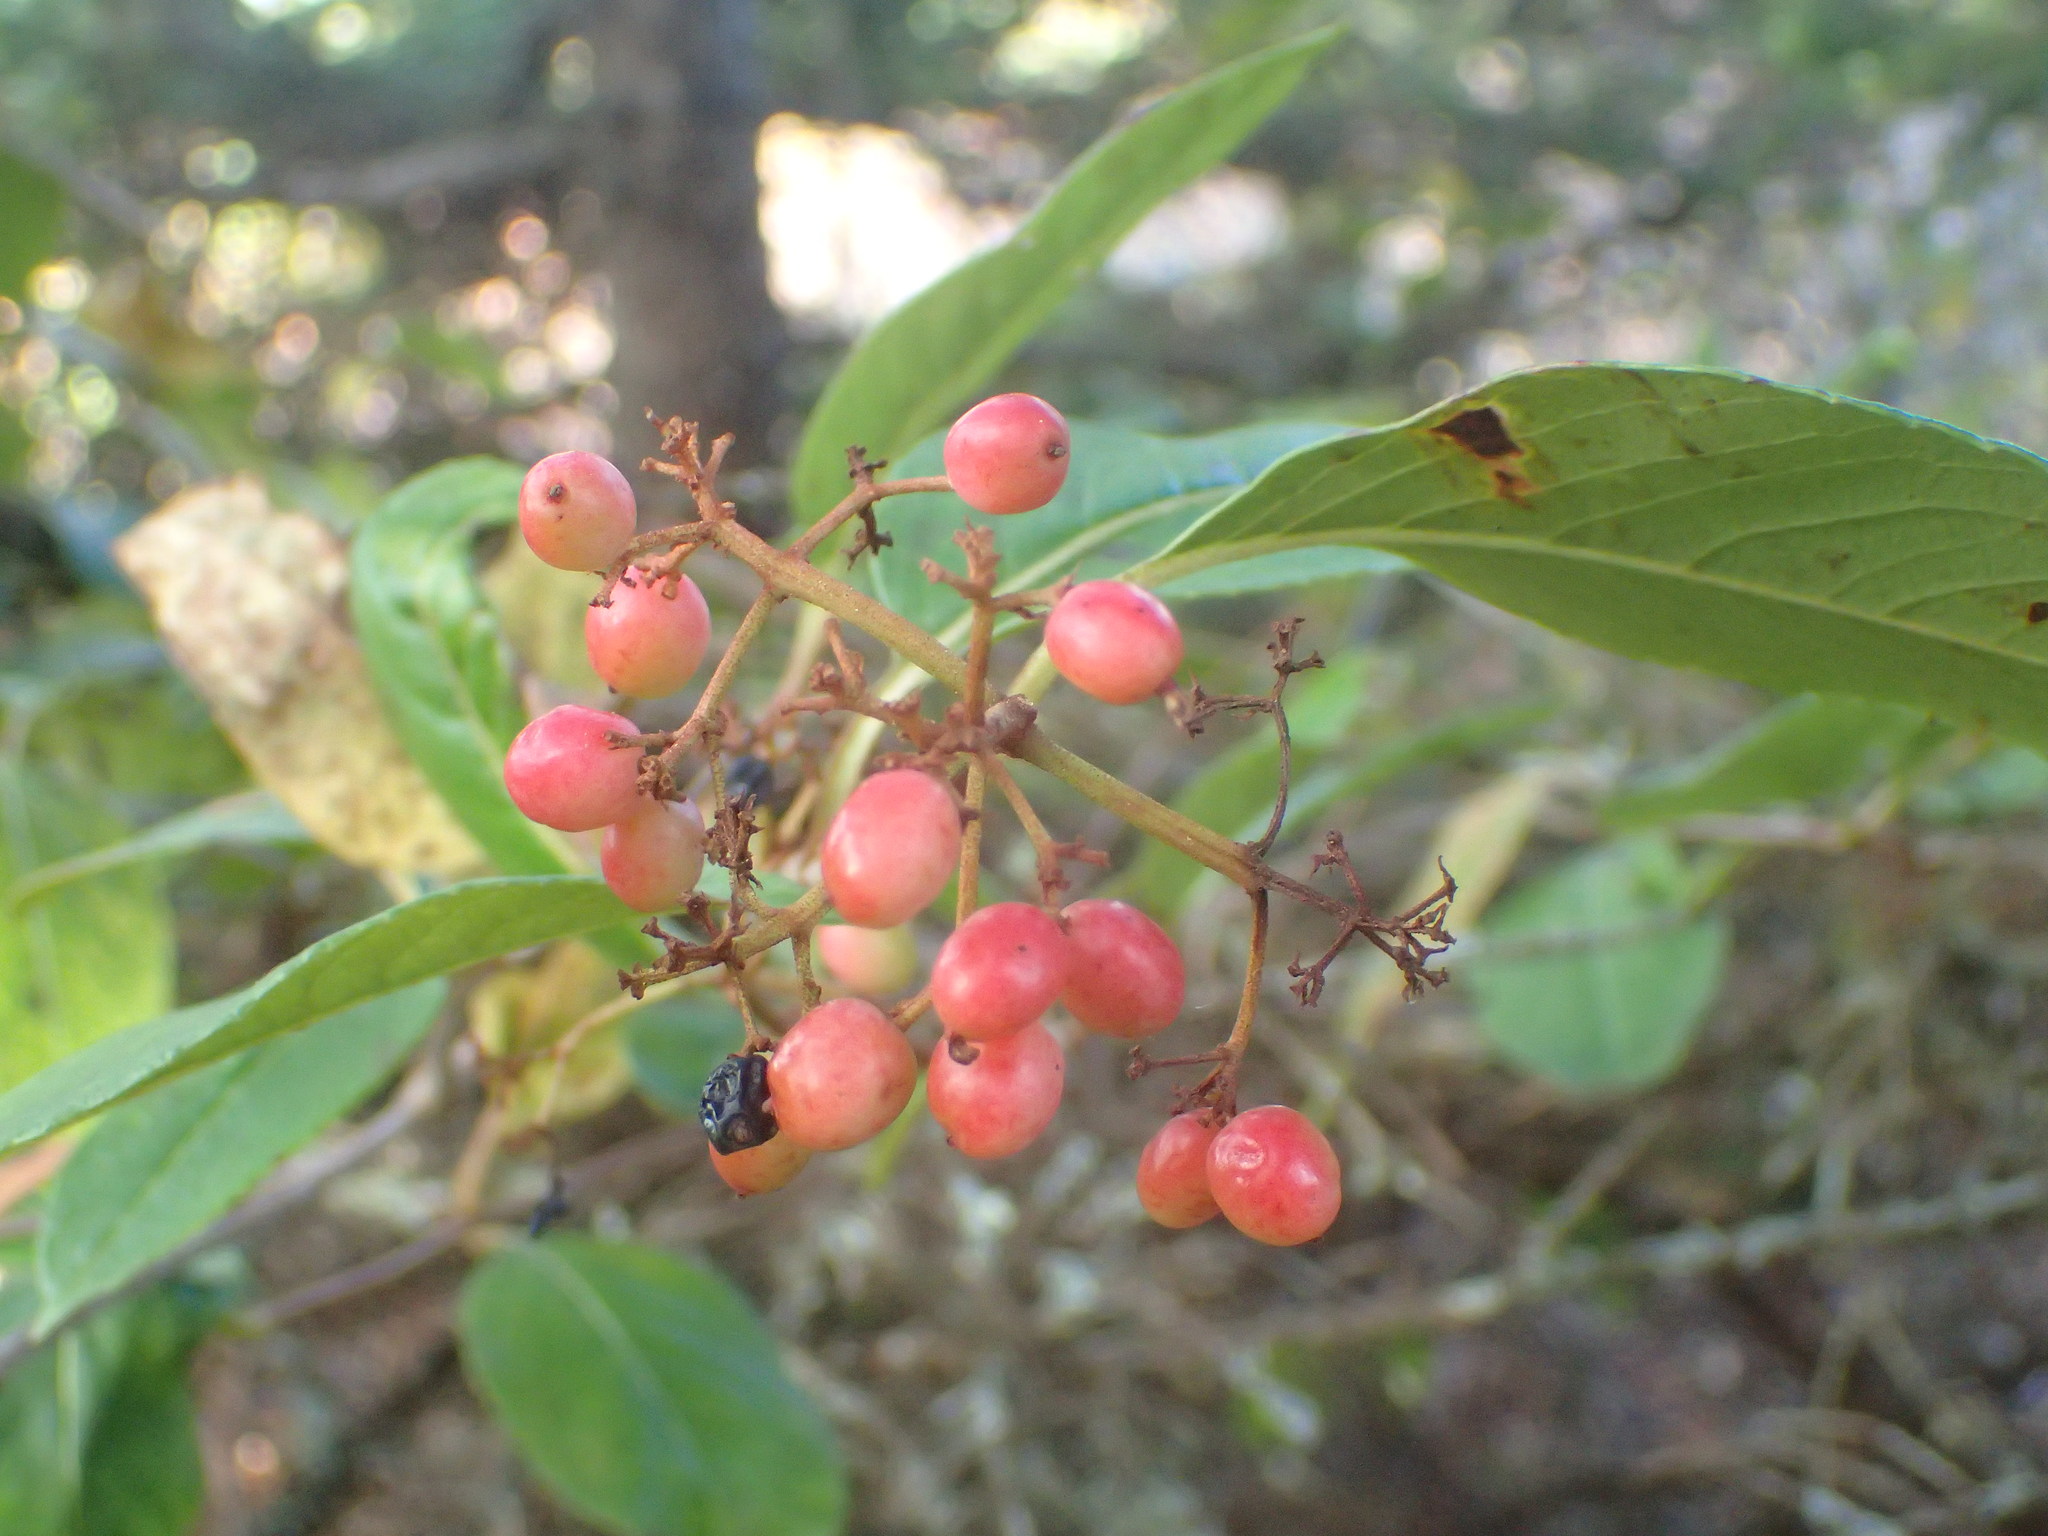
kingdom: Plantae
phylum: Tracheophyta
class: Magnoliopsida
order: Dipsacales
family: Viburnaceae
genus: Viburnum
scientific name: Viburnum cassinoides
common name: Swamp haw
